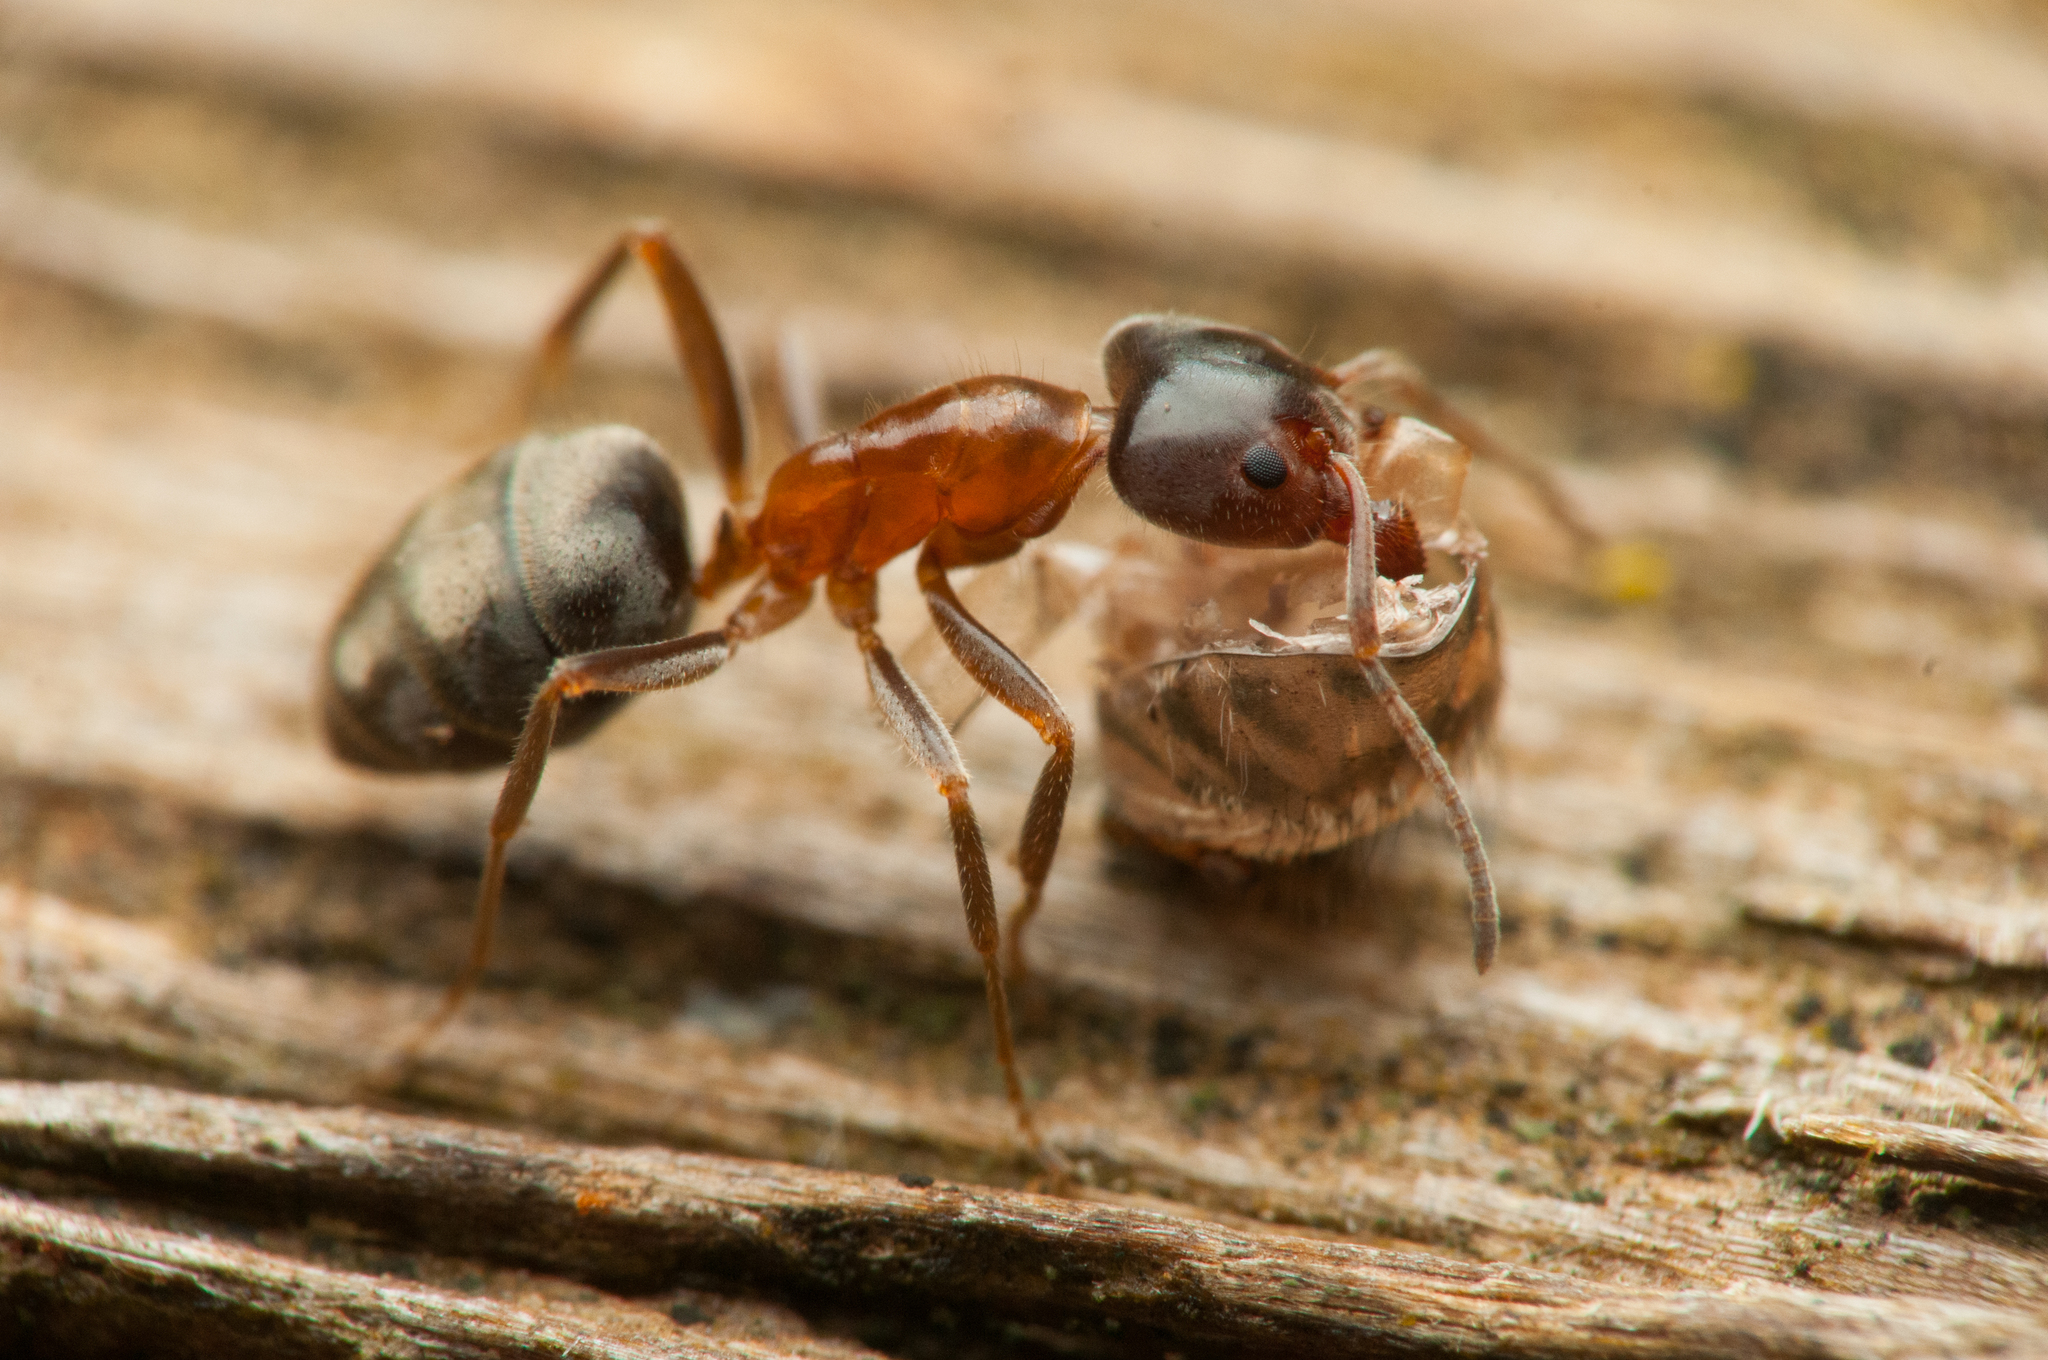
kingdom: Animalia
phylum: Arthropoda
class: Insecta
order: Hymenoptera
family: Formicidae
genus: Liometopum
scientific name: Liometopum occidentale
